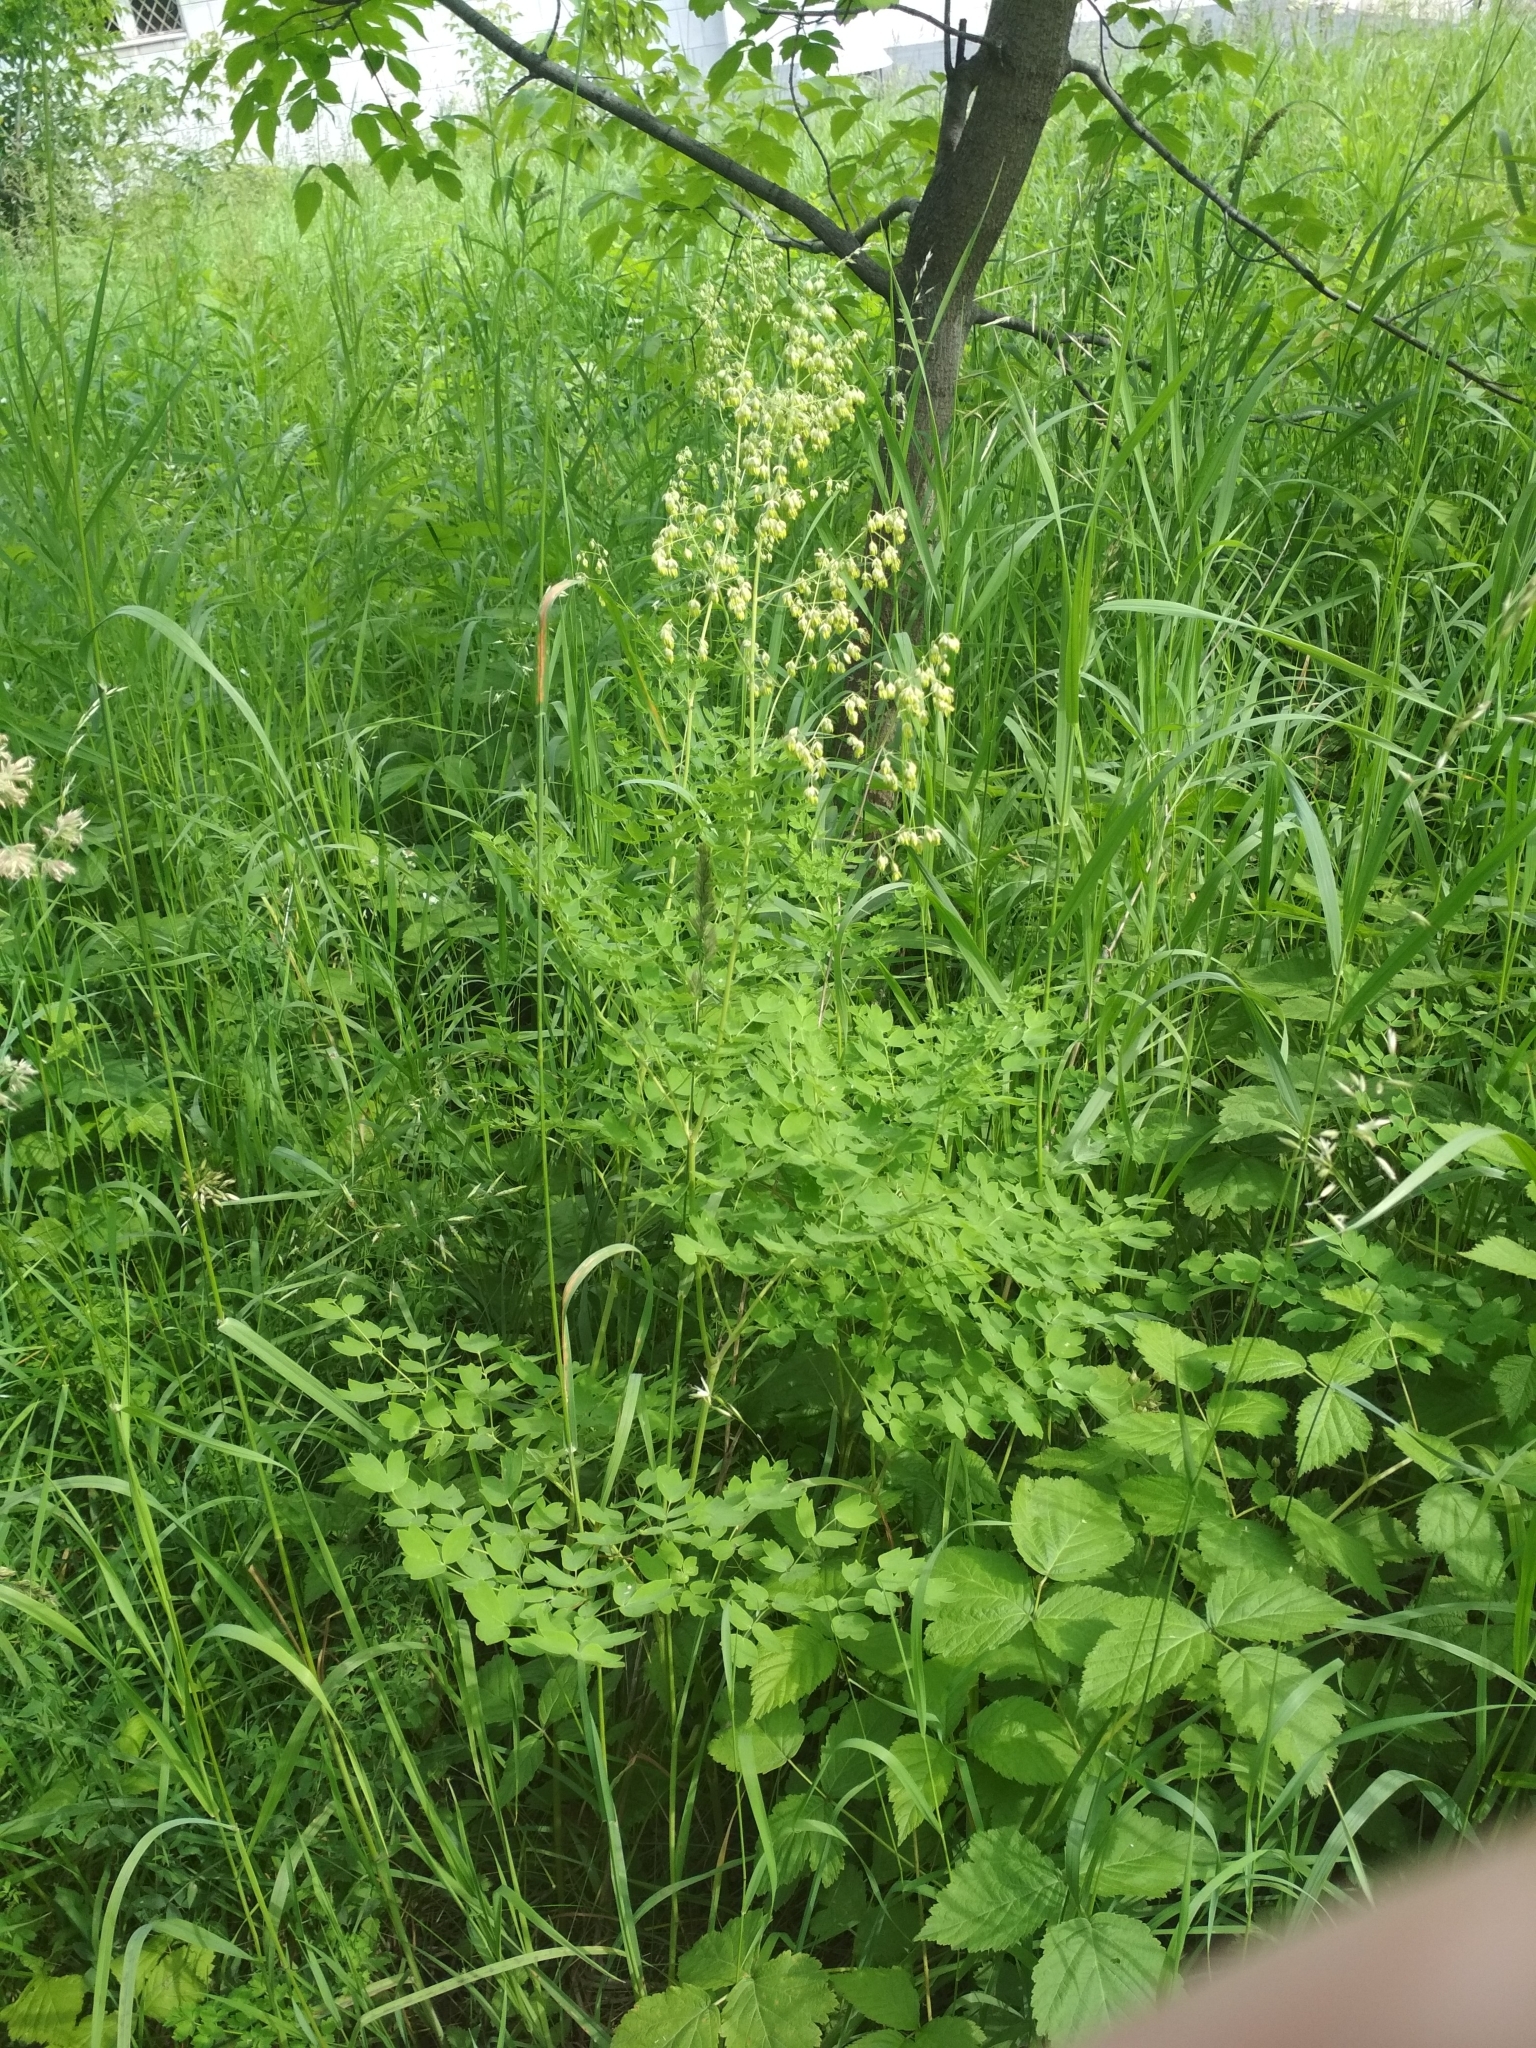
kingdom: Plantae
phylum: Tracheophyta
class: Magnoliopsida
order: Ranunculales
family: Ranunculaceae
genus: Thalictrum
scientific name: Thalictrum minus
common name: Lesser meadow-rue
